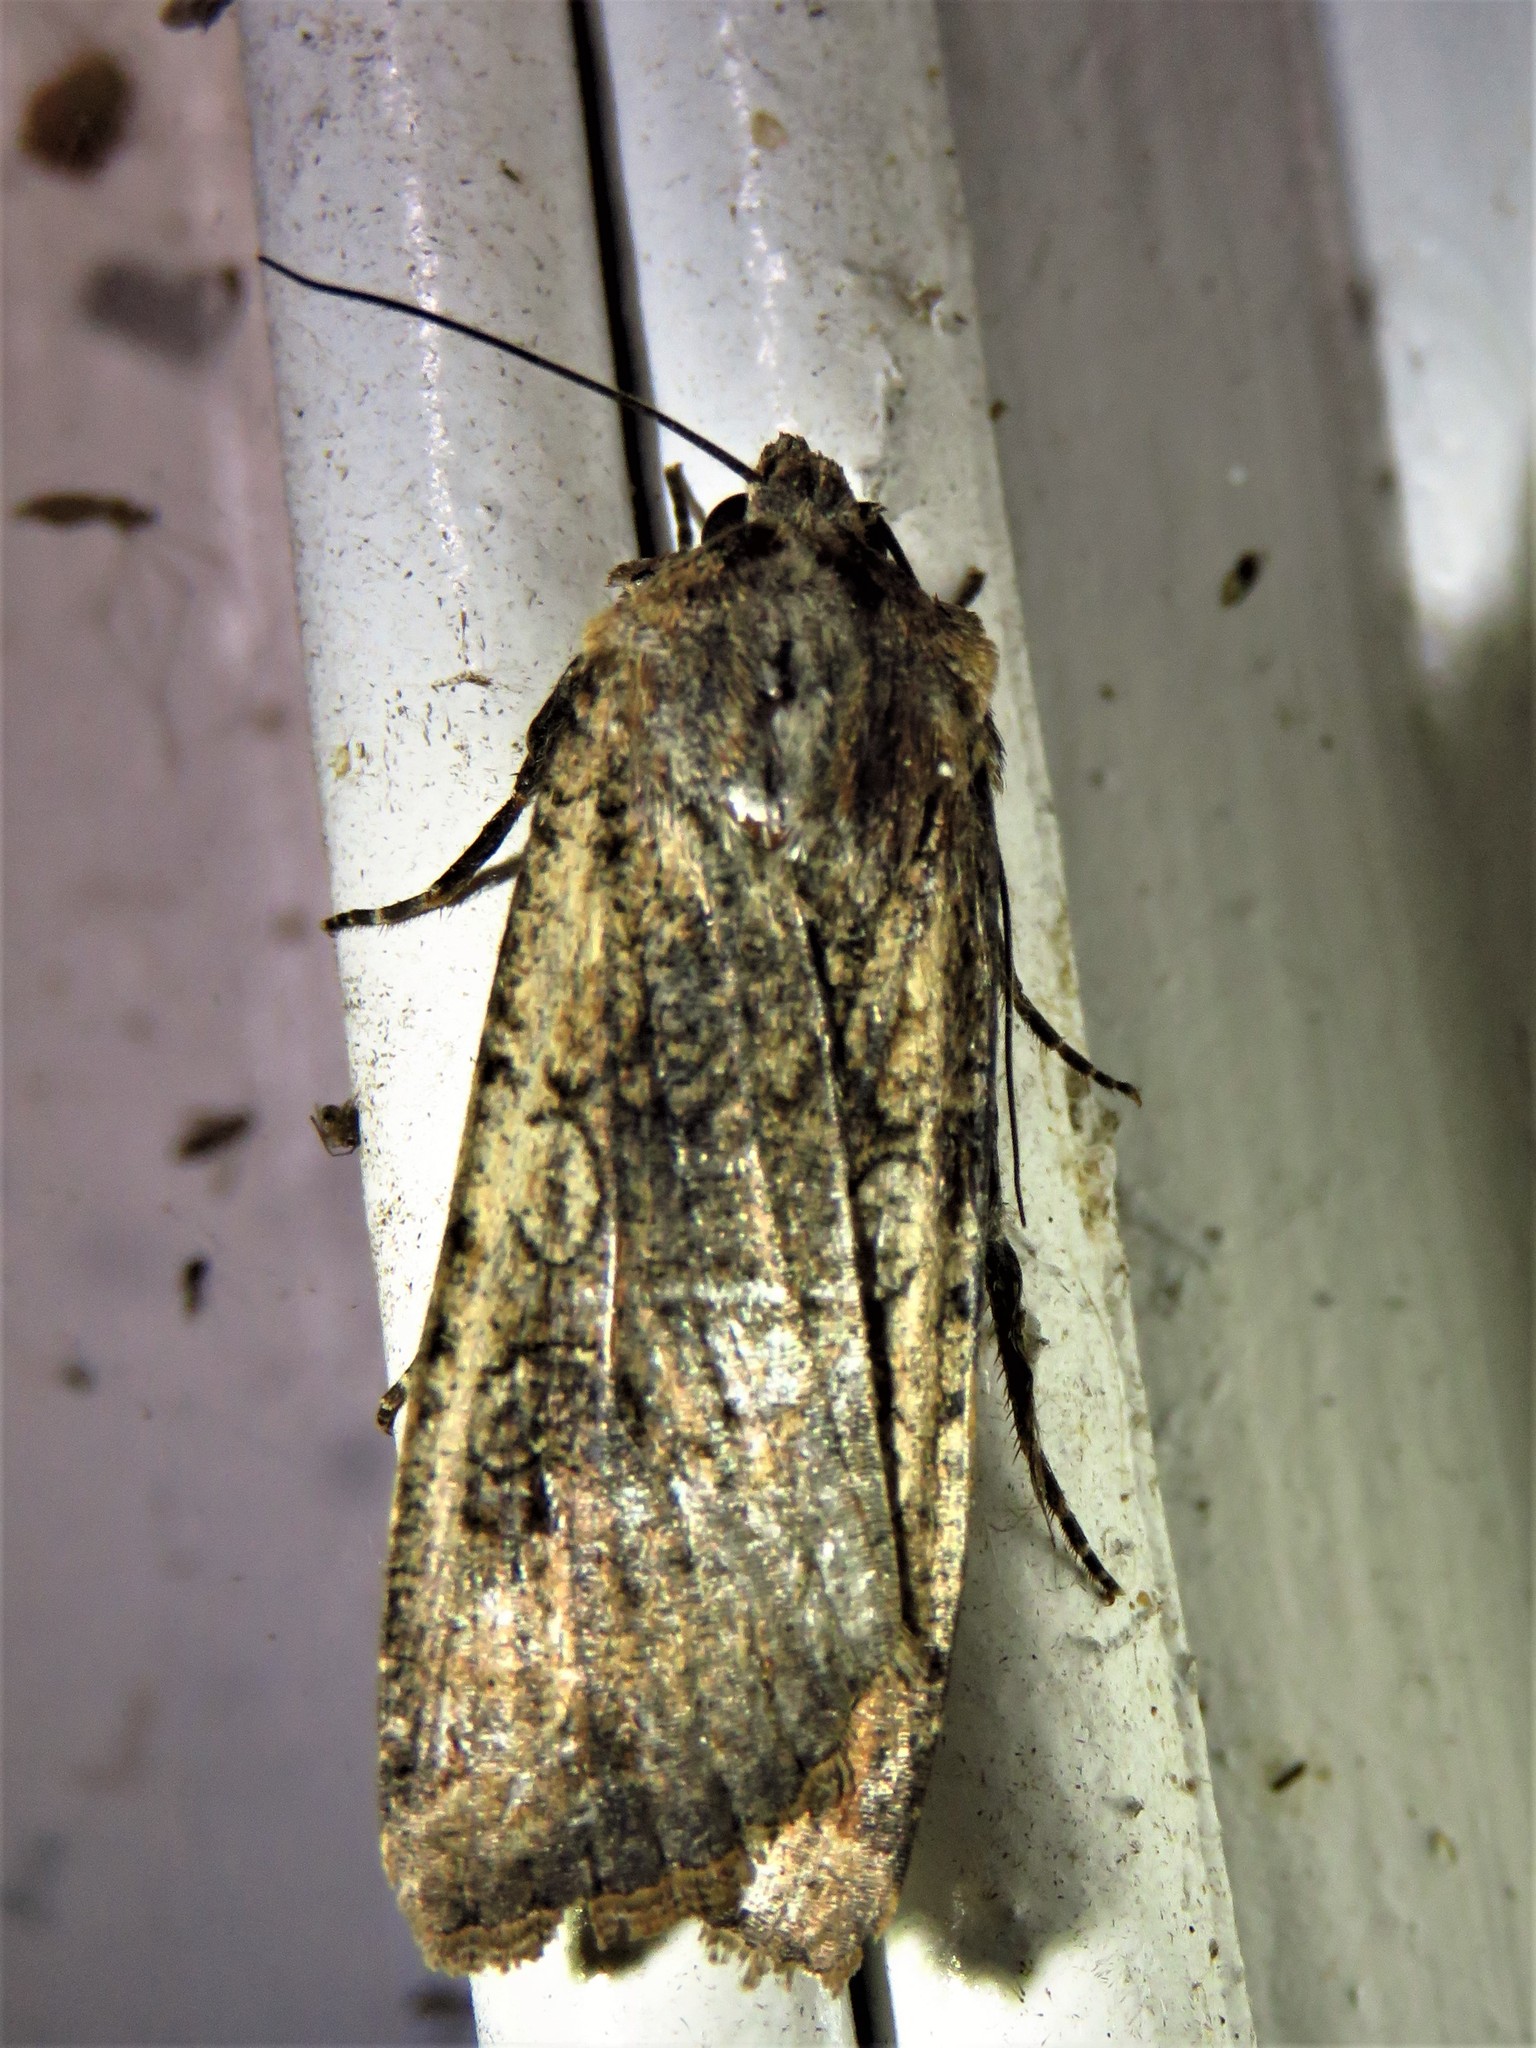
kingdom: Animalia
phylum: Arthropoda
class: Insecta
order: Lepidoptera
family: Noctuidae
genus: Peridroma
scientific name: Peridroma saucia
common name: Pearly underwing
